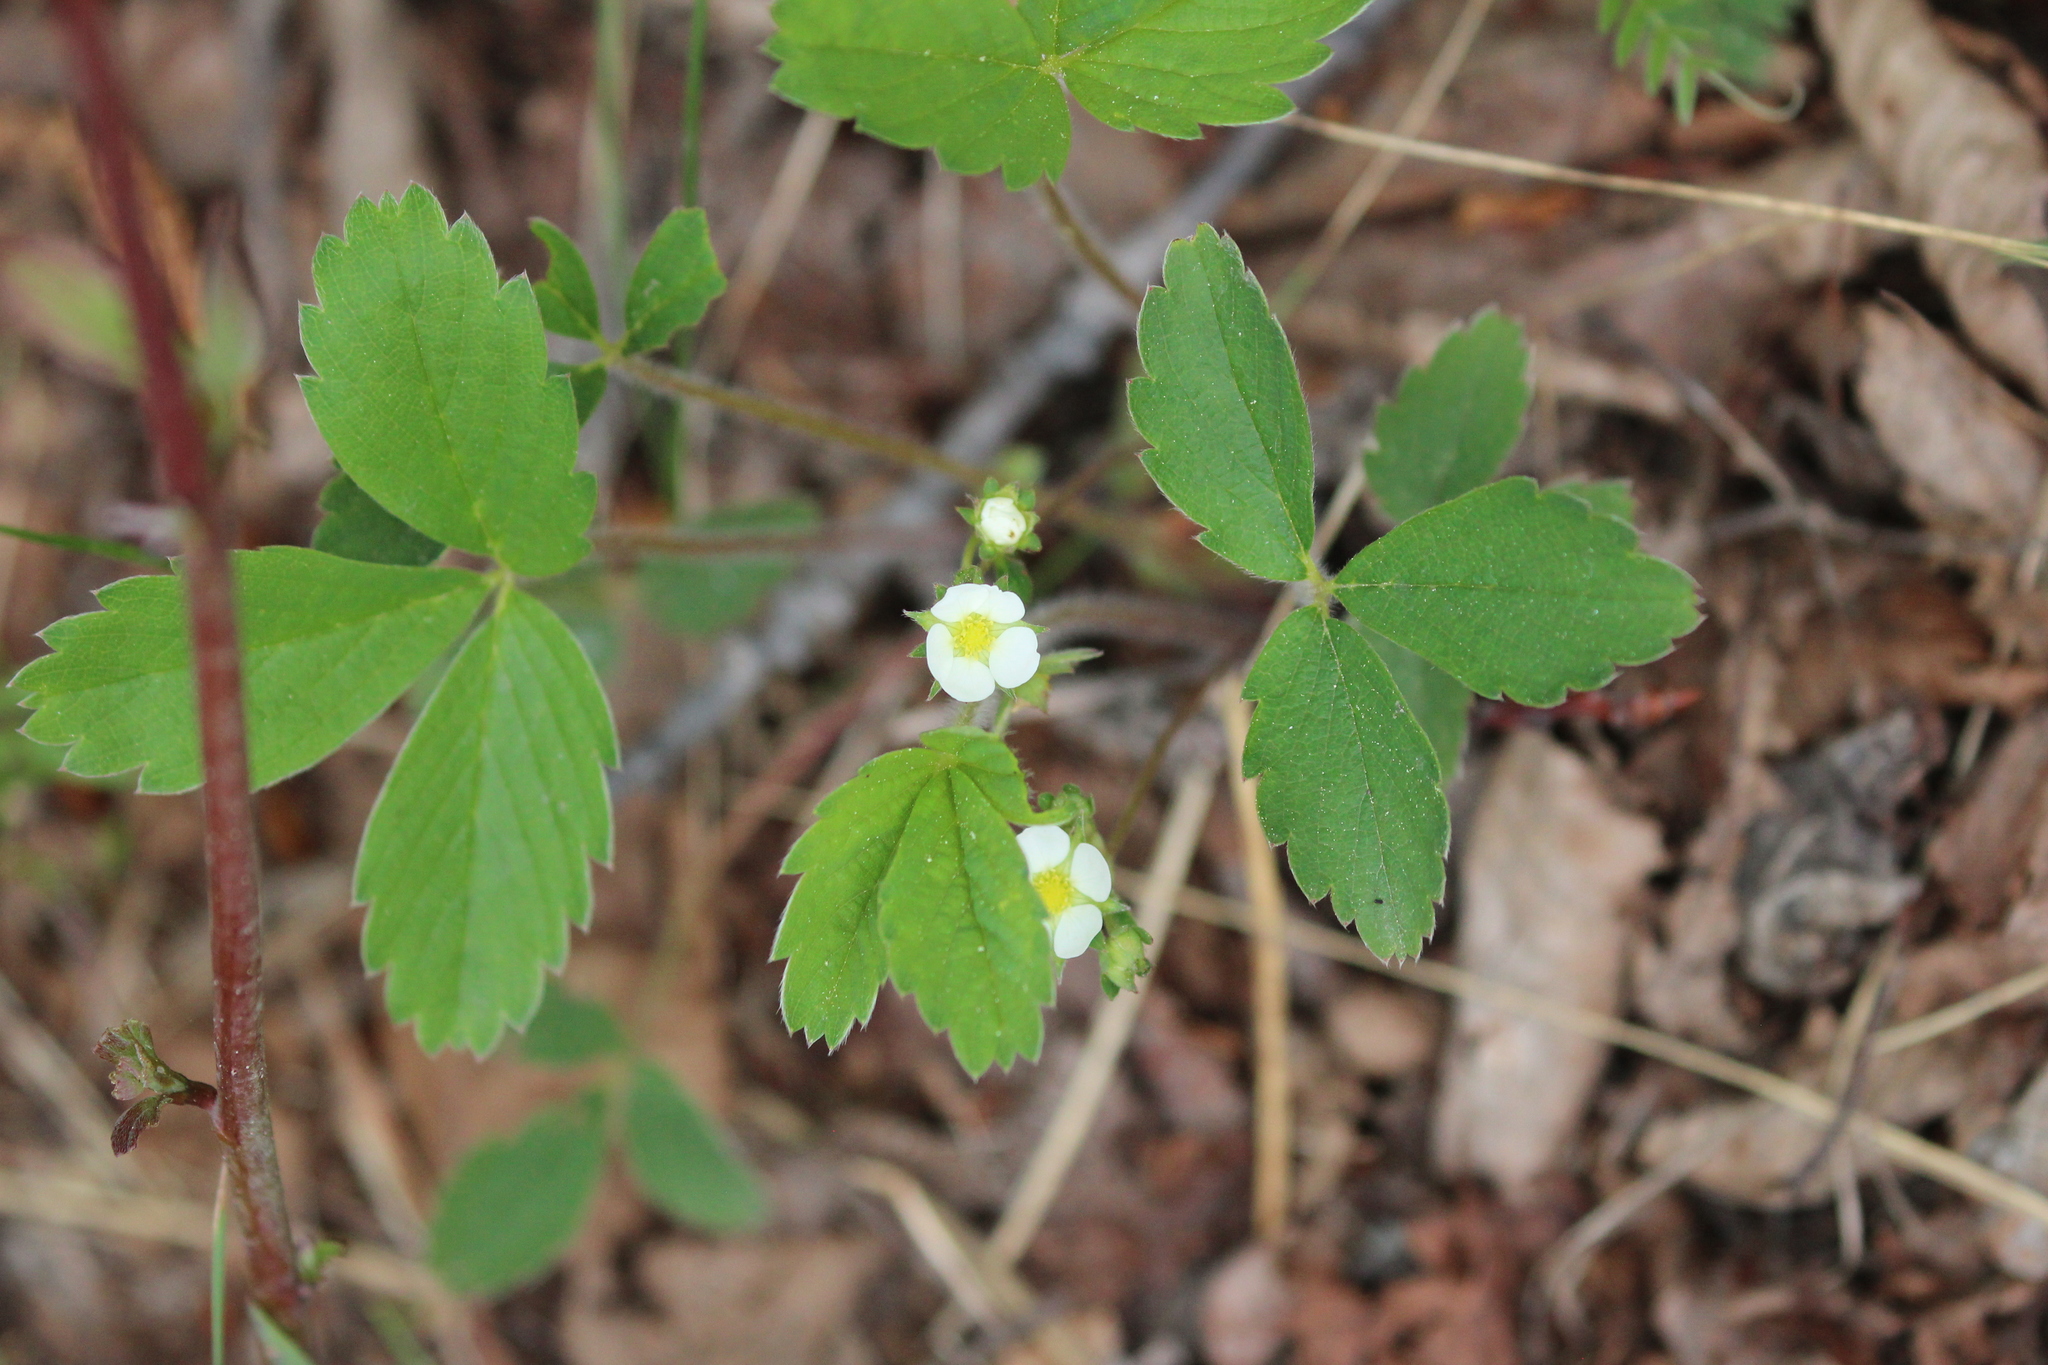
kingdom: Plantae
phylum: Tracheophyta
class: Magnoliopsida
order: Rosales
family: Rosaceae
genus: Fragaria
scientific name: Fragaria virginiana
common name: Thickleaved wild strawberry
